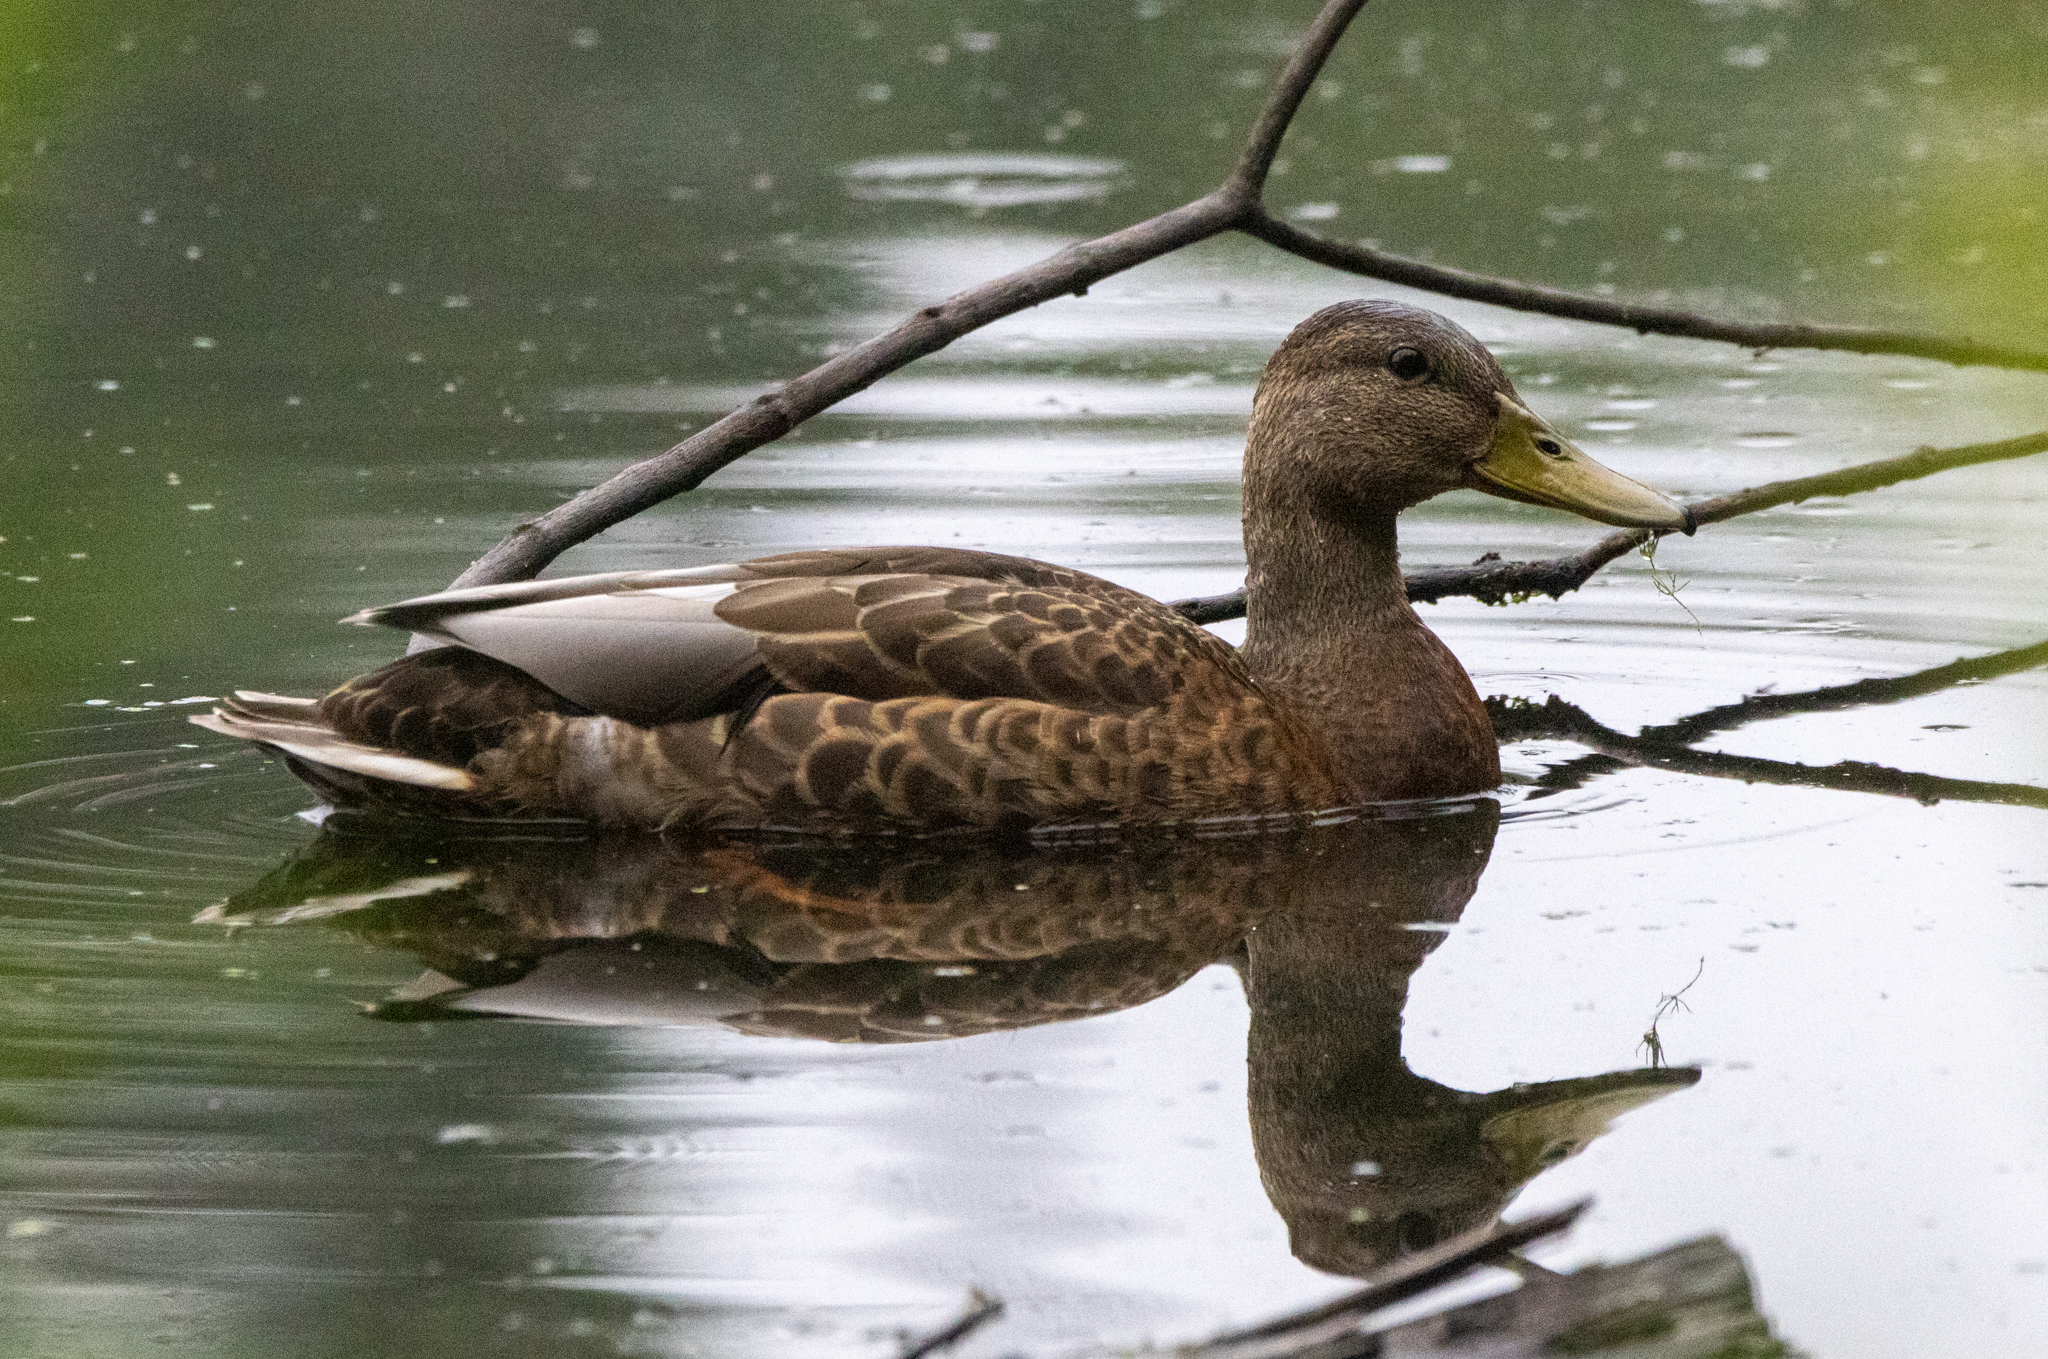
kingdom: Animalia
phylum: Chordata
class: Aves
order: Anseriformes
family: Anatidae
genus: Anas
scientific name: Anas platyrhynchos
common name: Mallard
